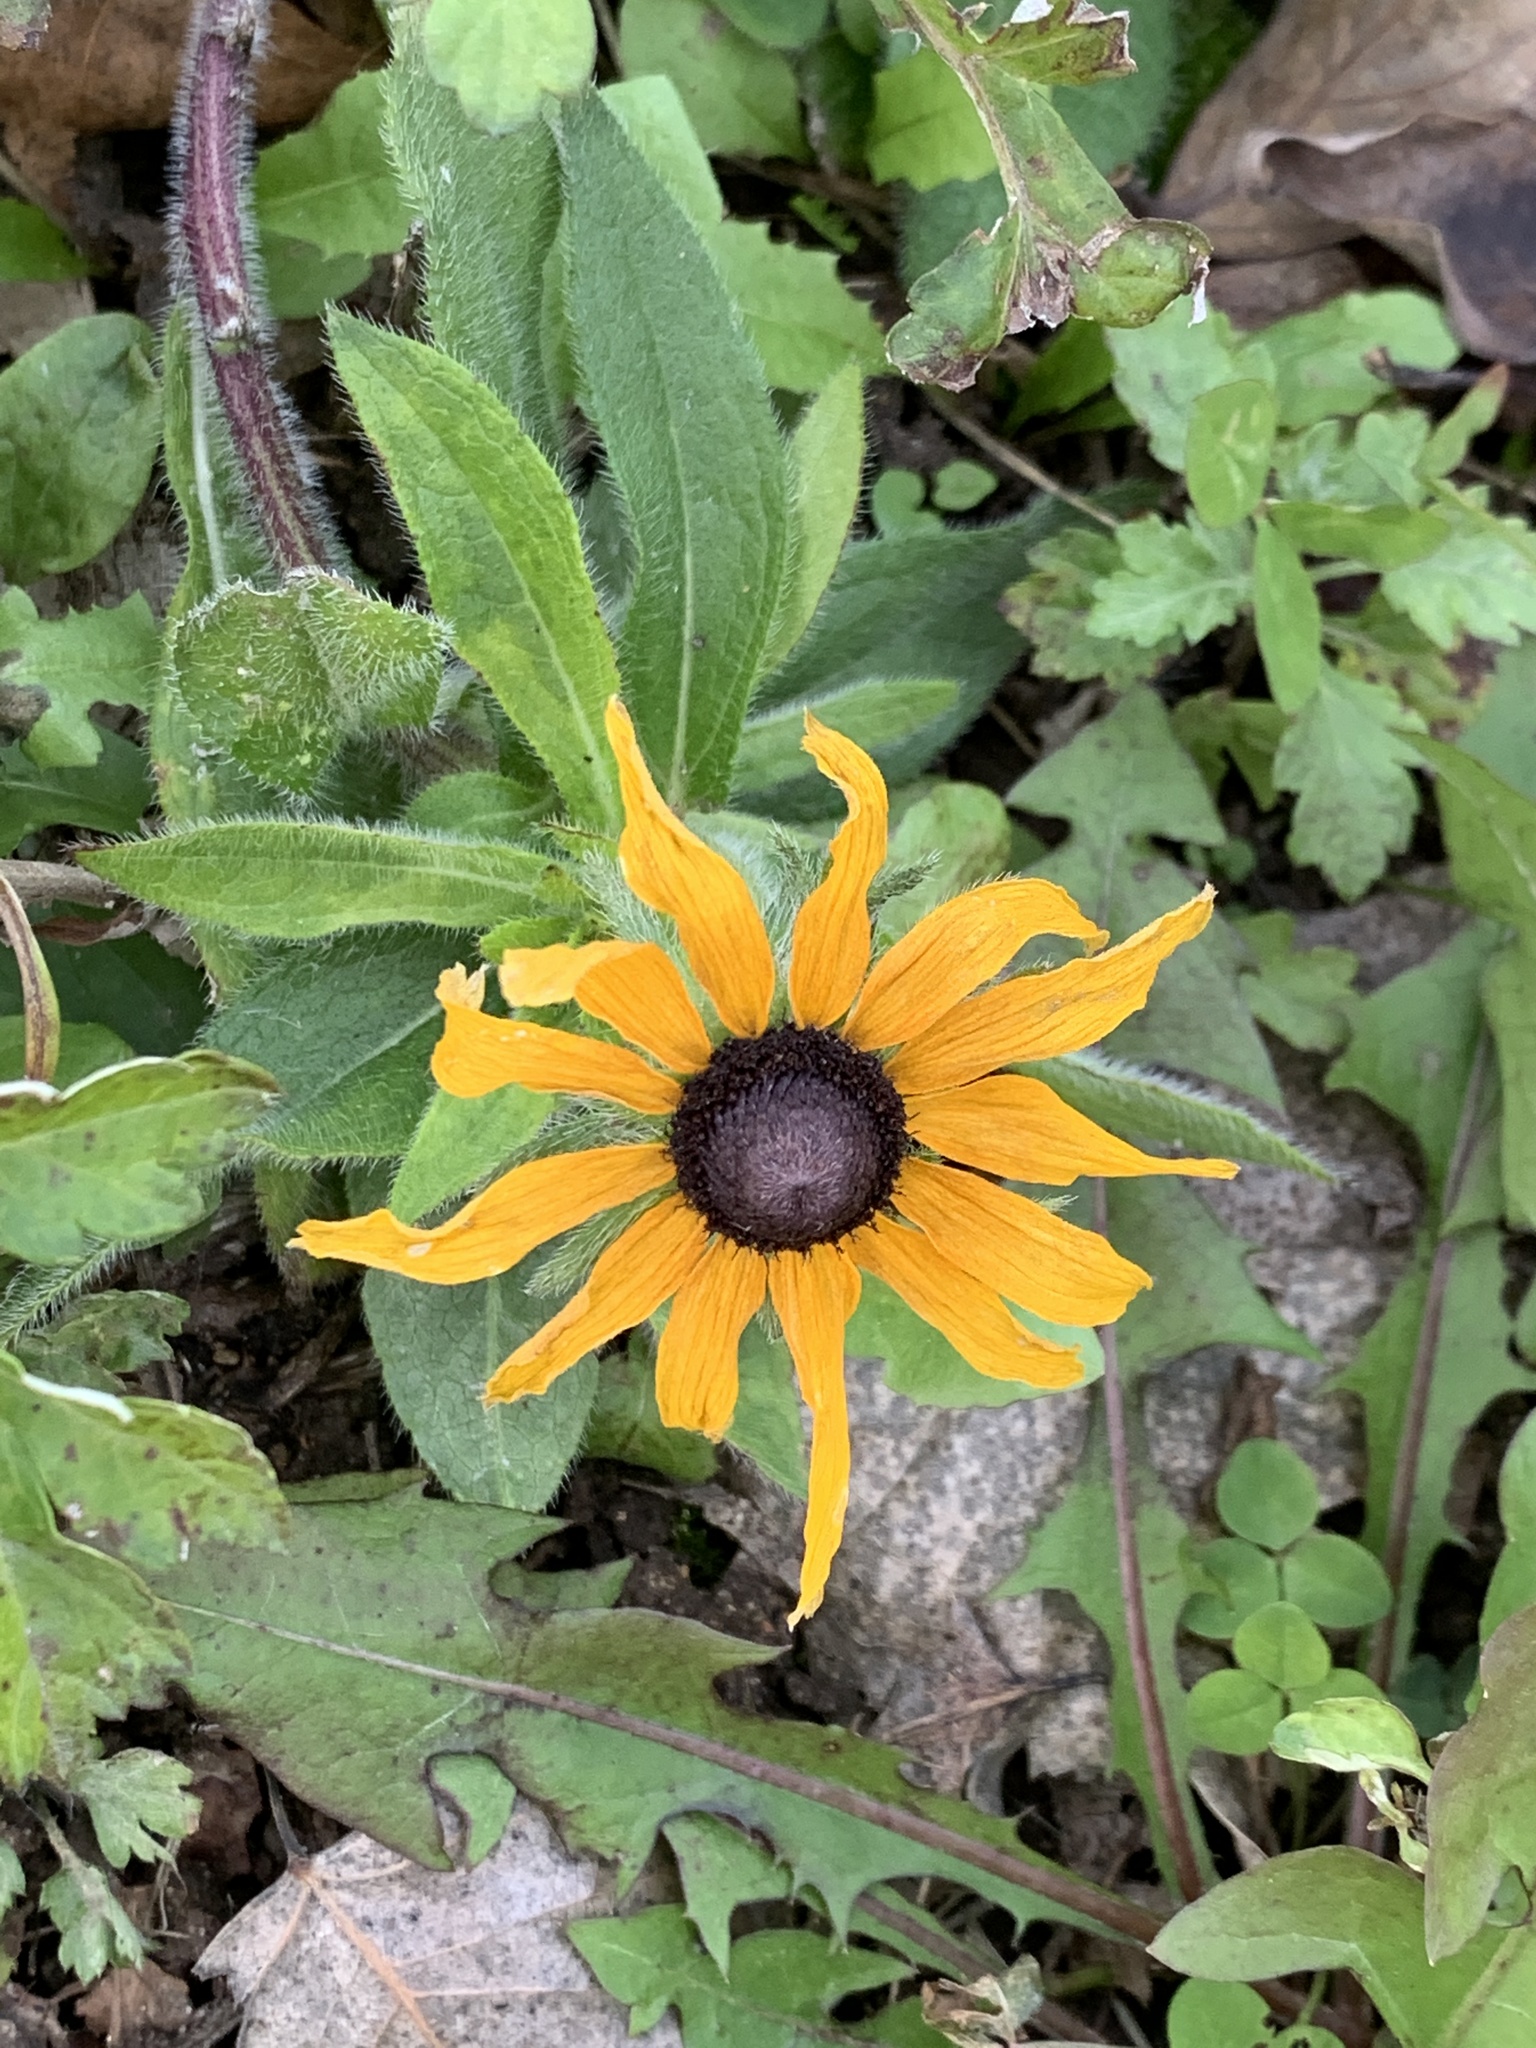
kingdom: Plantae
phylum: Tracheophyta
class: Magnoliopsida
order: Asterales
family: Asteraceae
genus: Rudbeckia
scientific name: Rudbeckia hirta
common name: Black-eyed-susan
